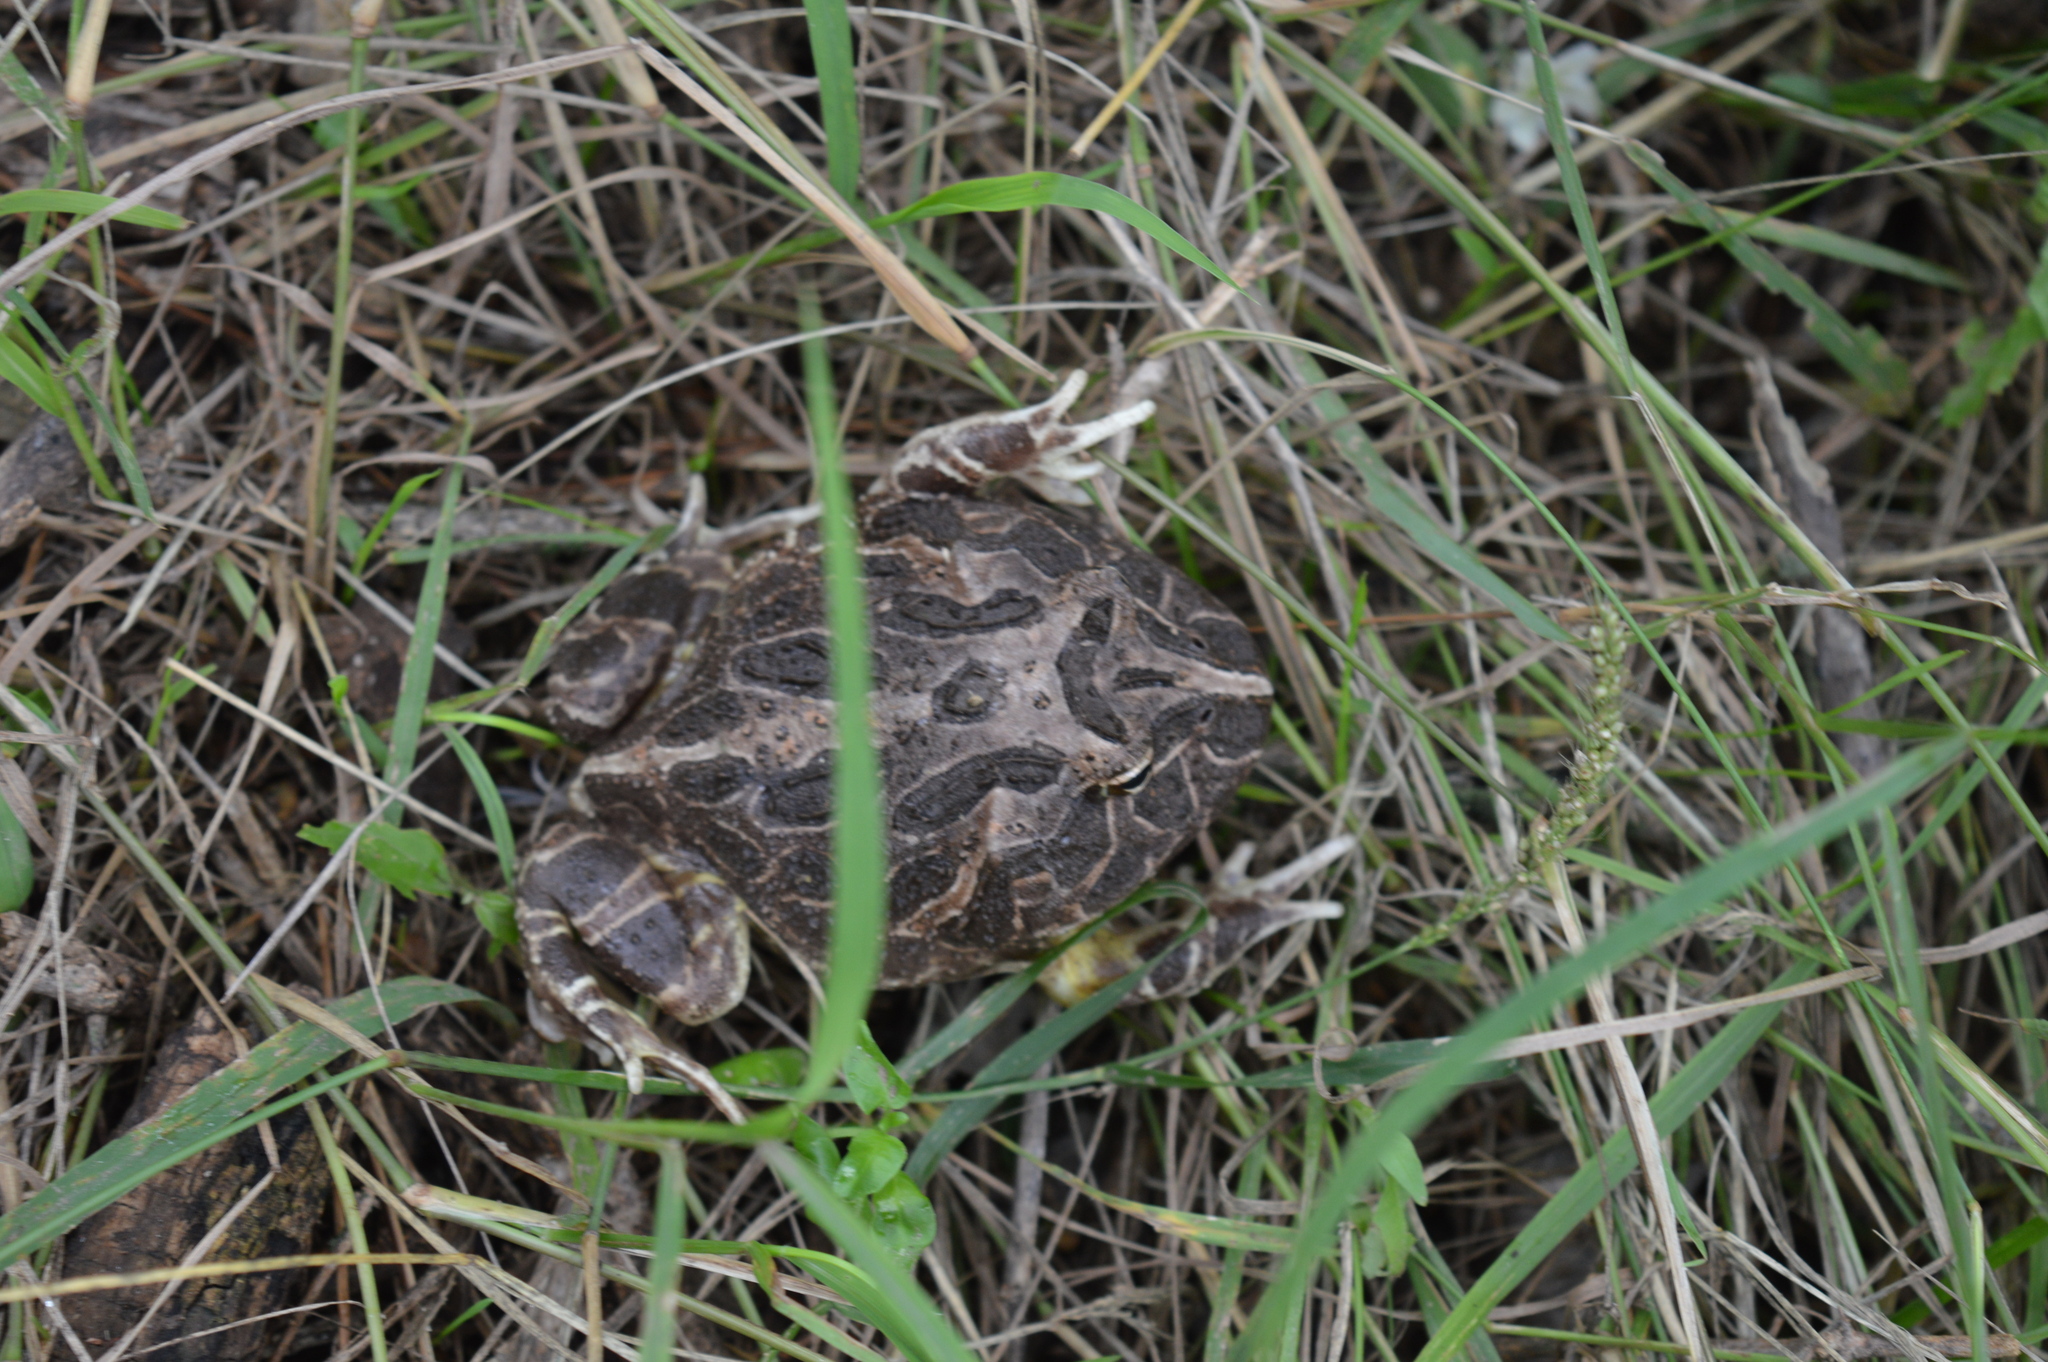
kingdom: Animalia
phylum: Chordata
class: Amphibia
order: Anura
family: Ceratophryidae
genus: Ceratophrys
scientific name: Ceratophrys cranwelli
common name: Chacoan horned frog
